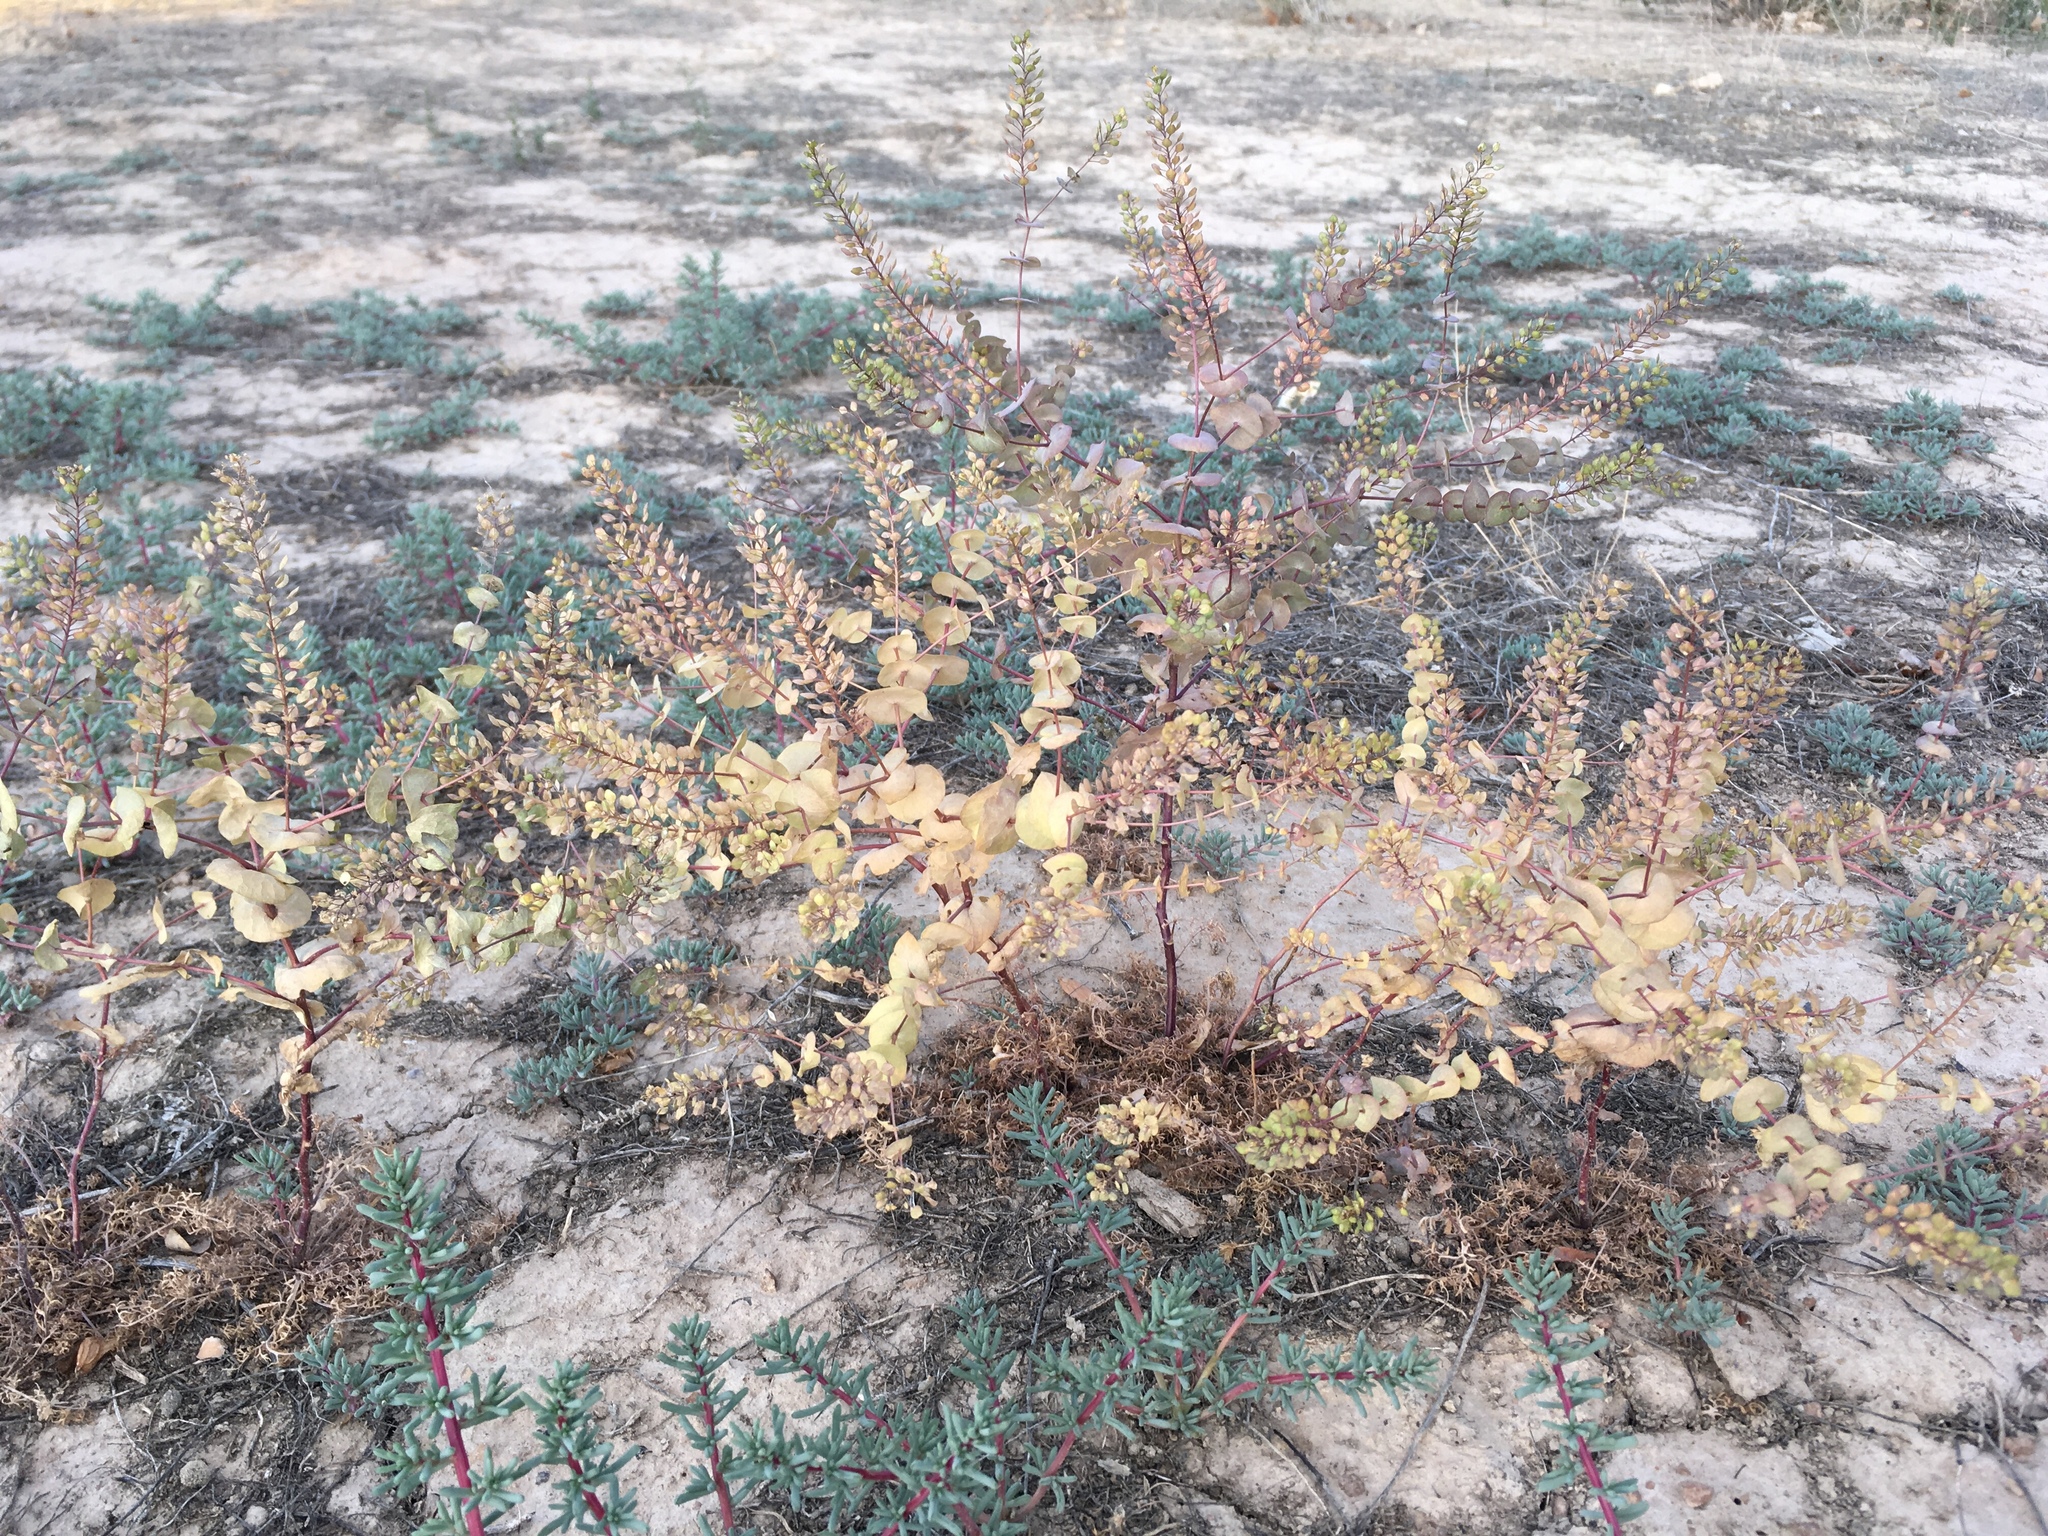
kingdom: Plantae
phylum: Tracheophyta
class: Magnoliopsida
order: Brassicales
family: Brassicaceae
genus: Lepidium
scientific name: Lepidium perfoliatum
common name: Perfoliate pepperwort
